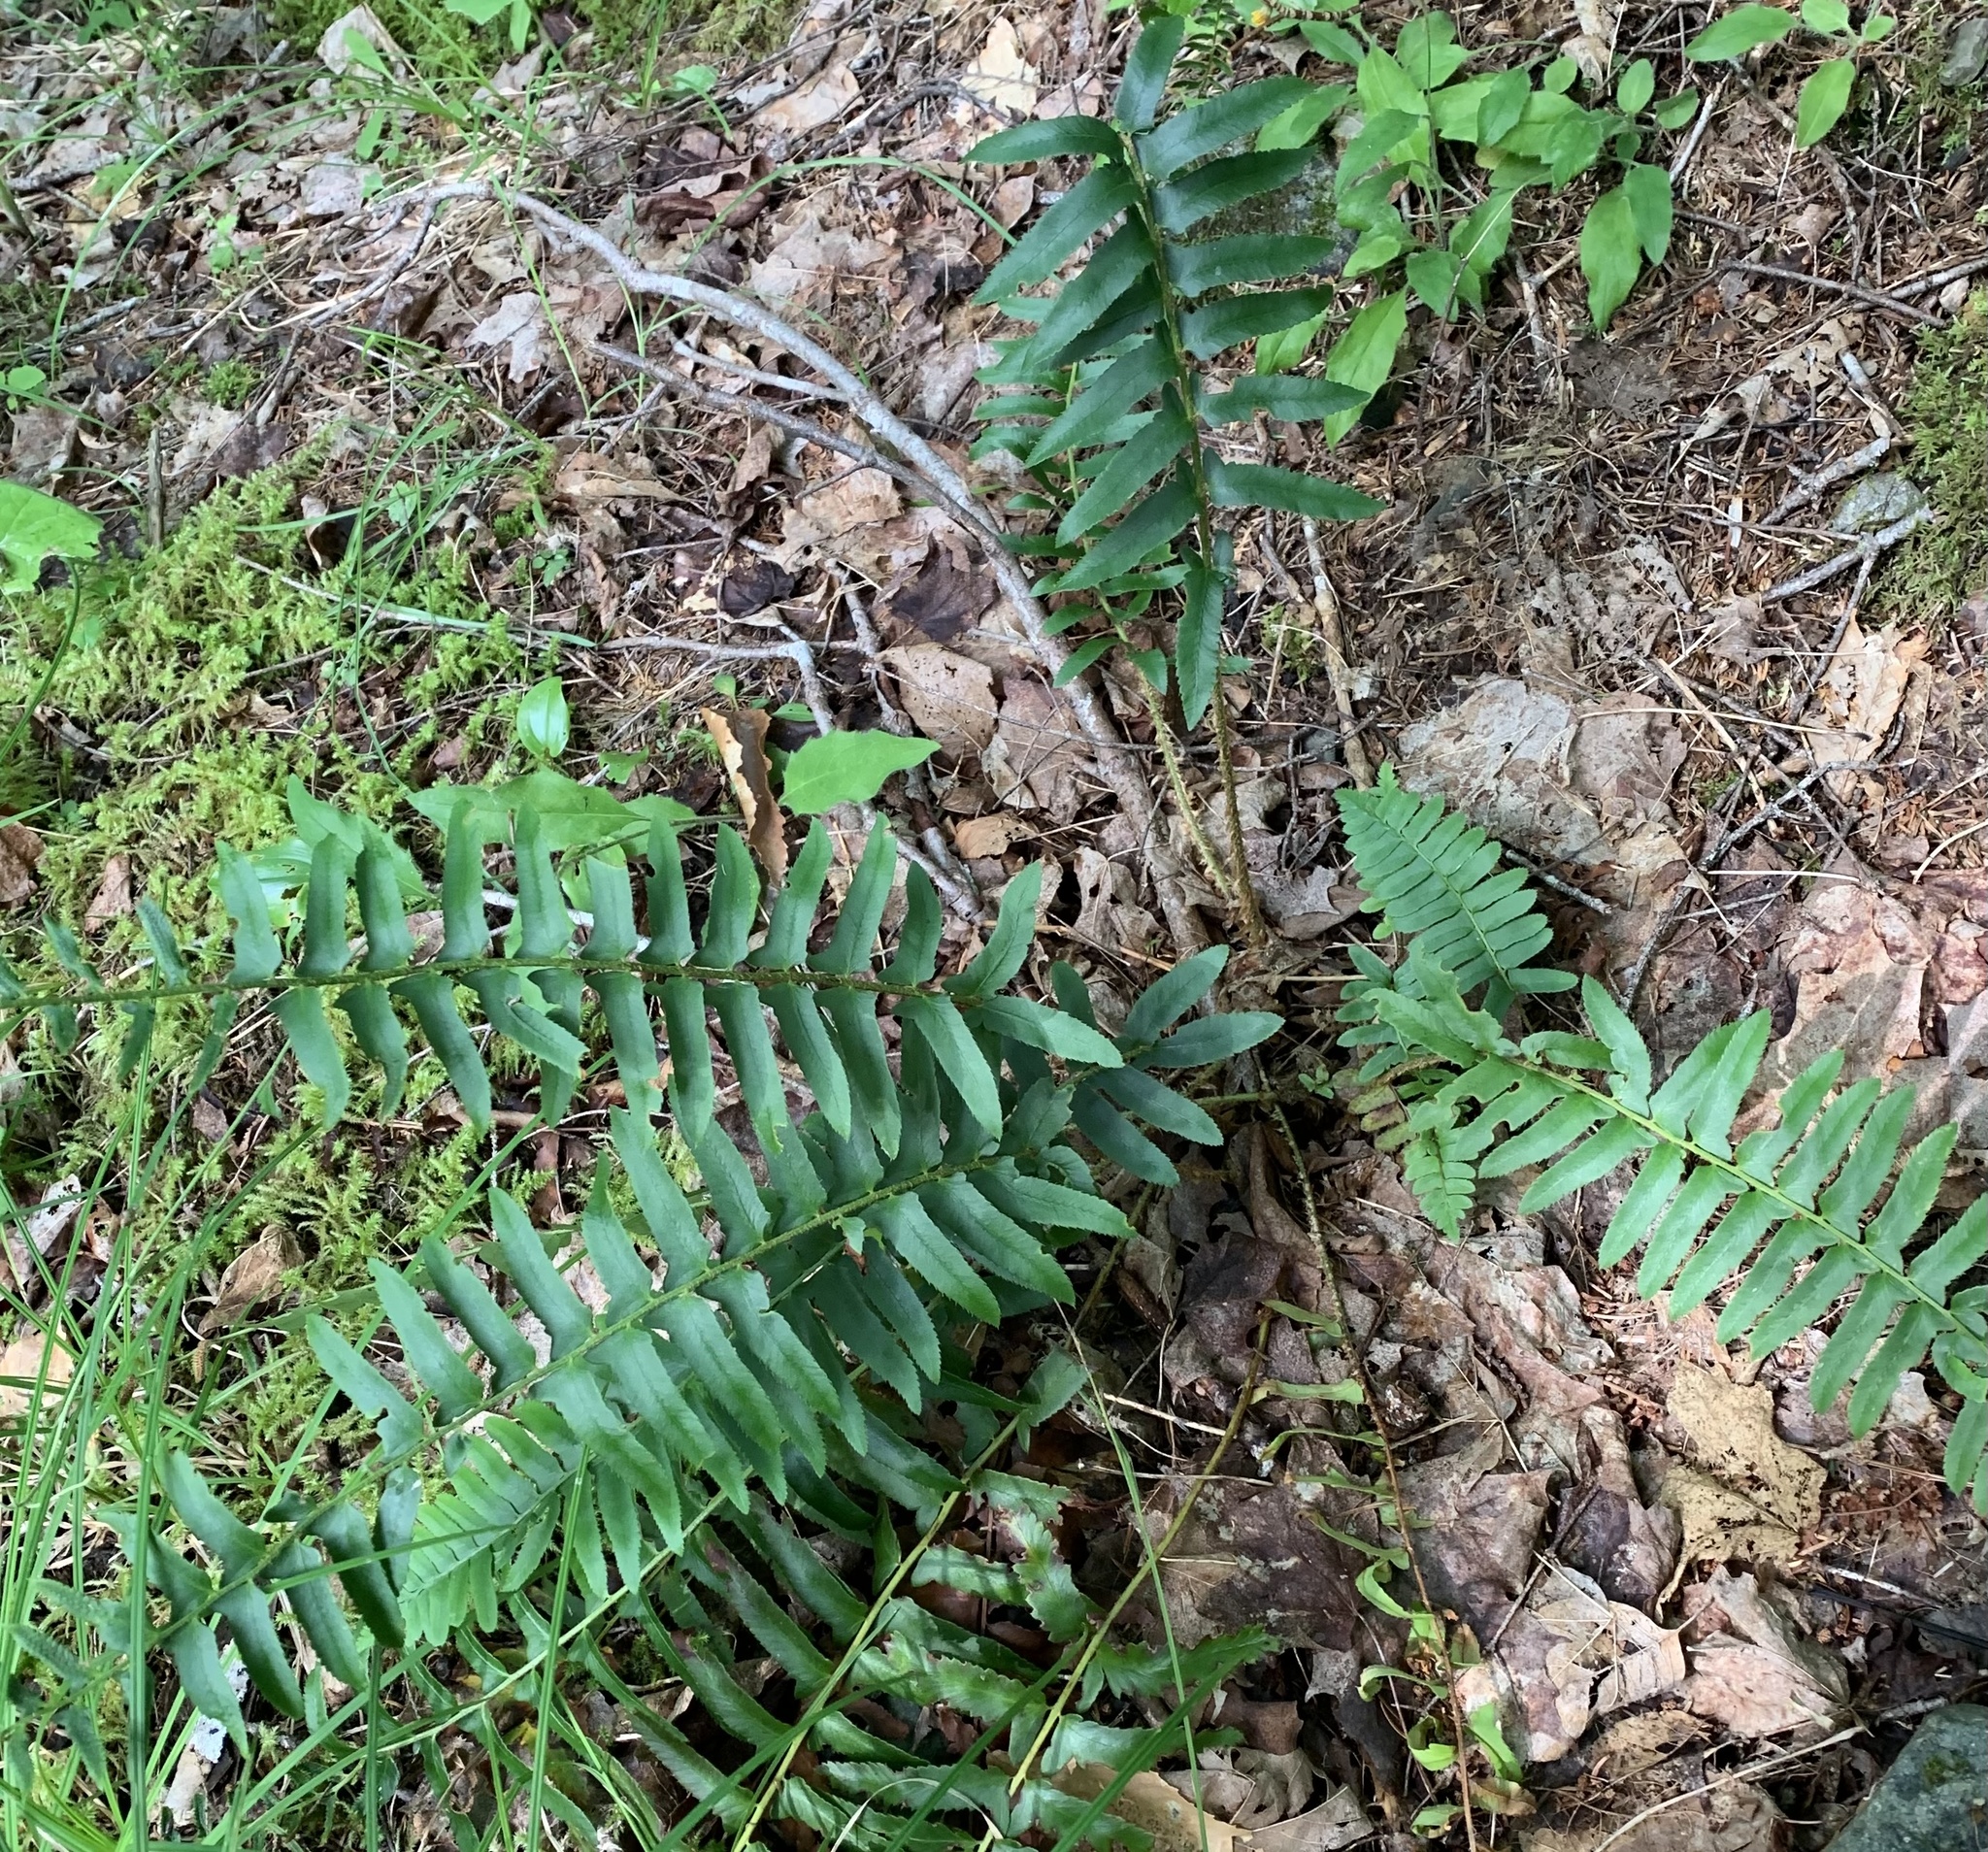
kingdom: Plantae
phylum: Tracheophyta
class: Polypodiopsida
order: Polypodiales
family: Dryopteridaceae
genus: Polystichum
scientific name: Polystichum acrostichoides
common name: Christmas fern
